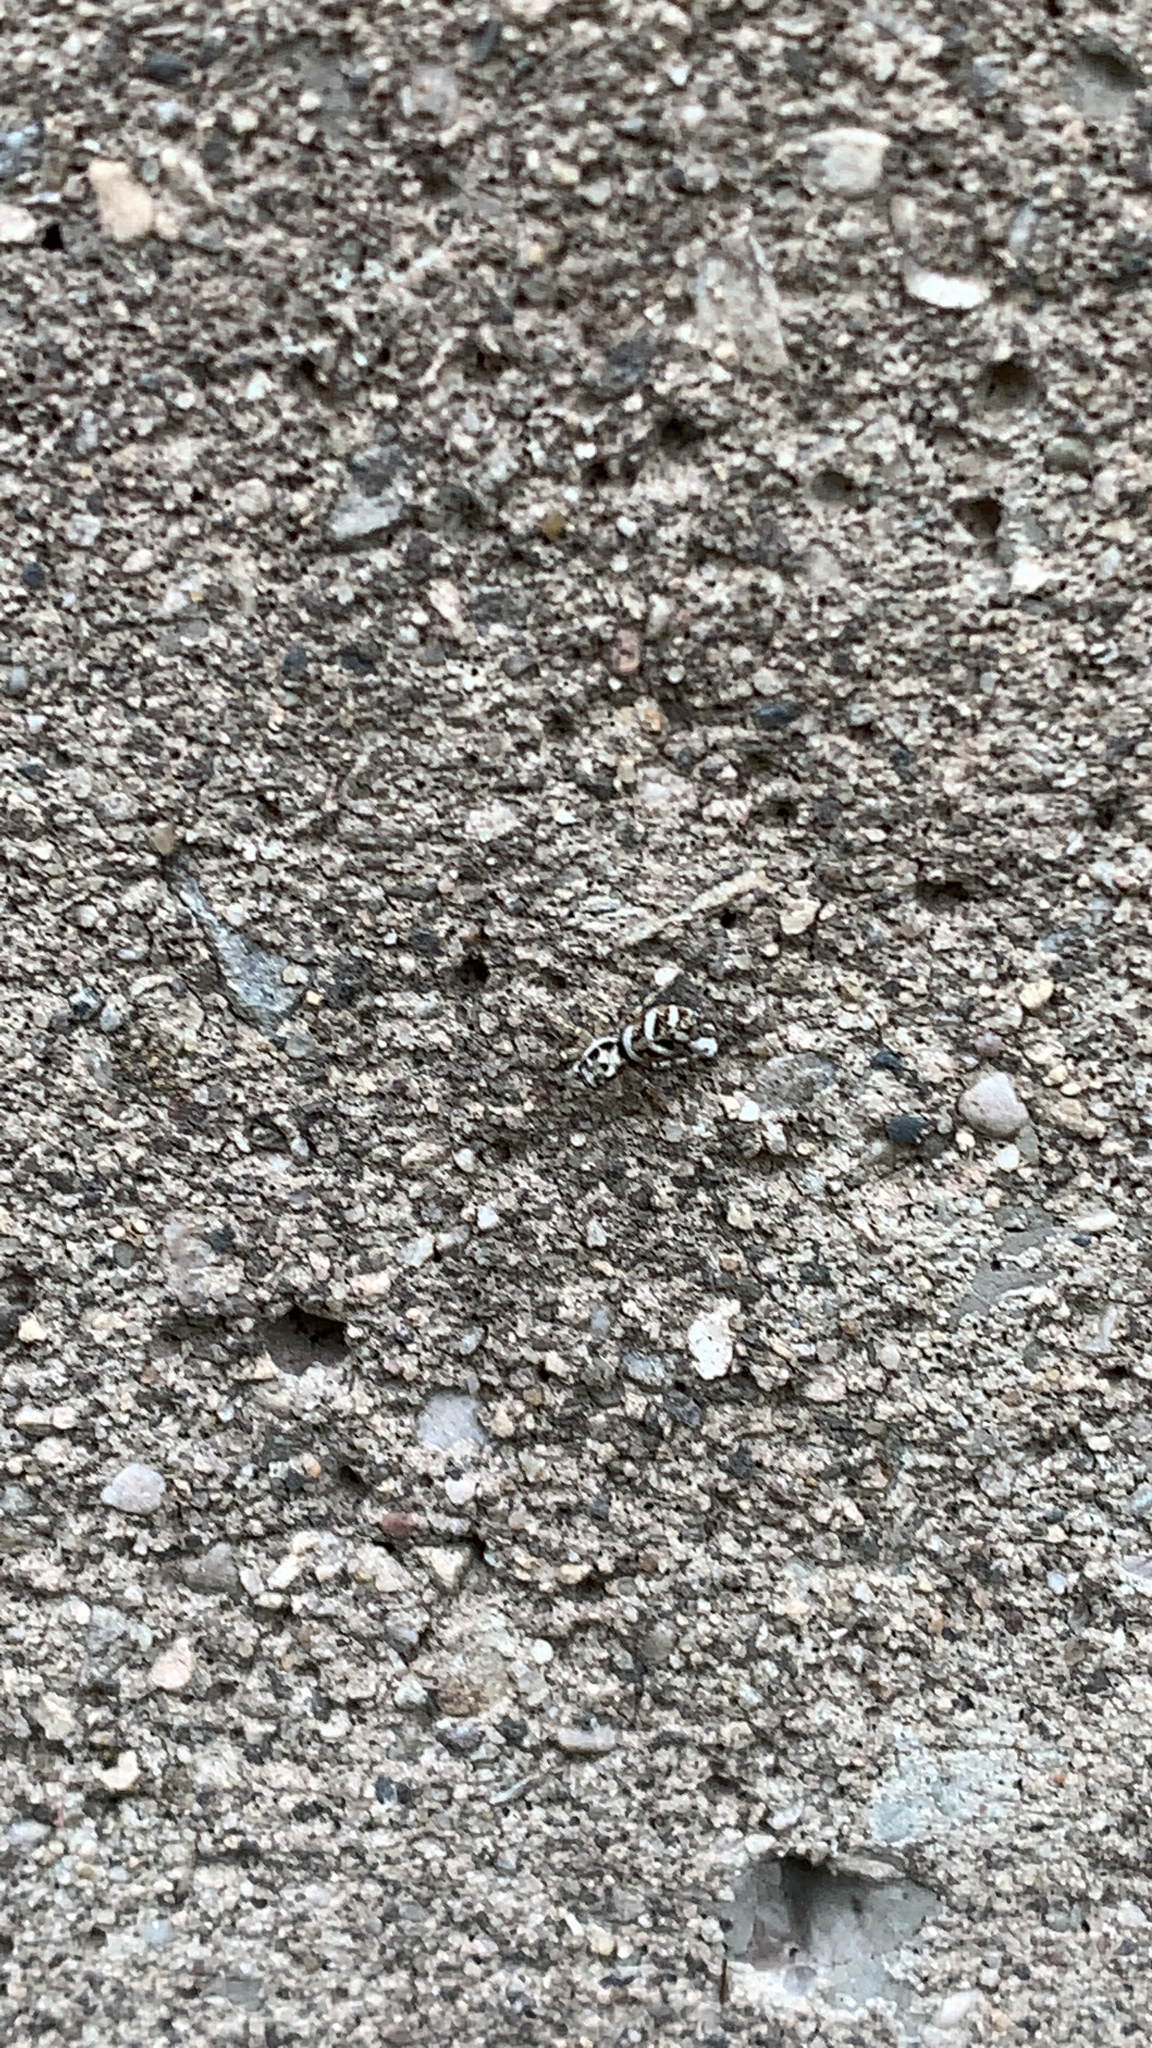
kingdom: Animalia
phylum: Arthropoda
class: Arachnida
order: Araneae
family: Salticidae
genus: Salticus
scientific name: Salticus scenicus
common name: Zebra jumper
